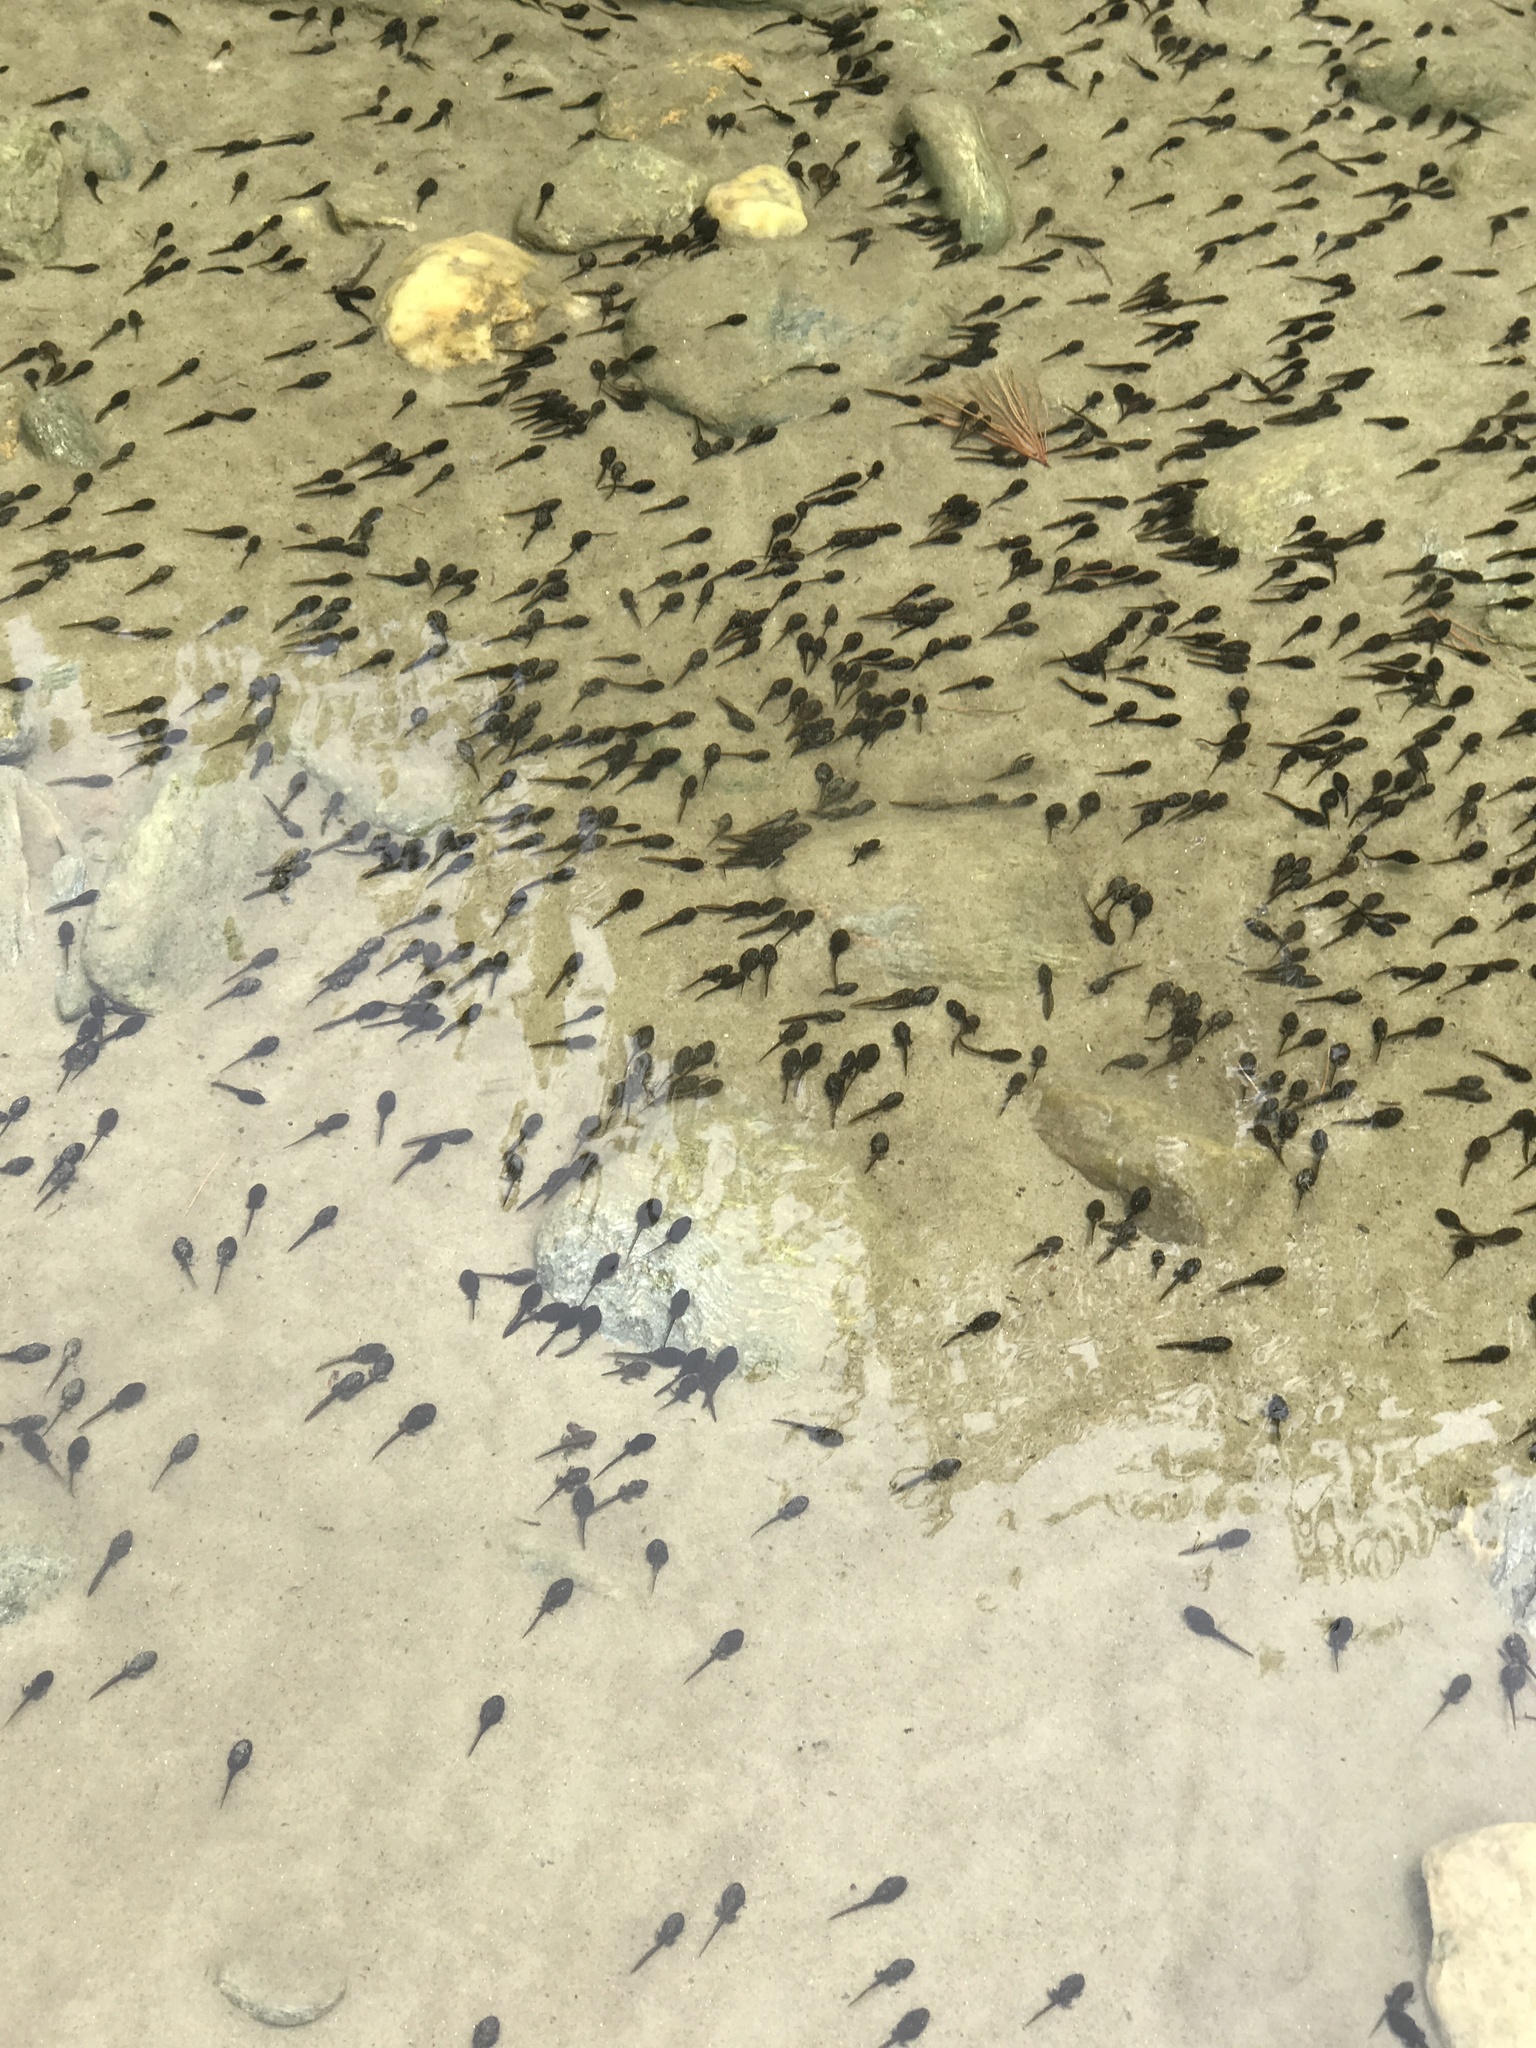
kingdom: Animalia
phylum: Chordata
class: Amphibia
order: Anura
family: Bufonidae
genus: Anaxyrus
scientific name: Anaxyrus americanus
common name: American toad
